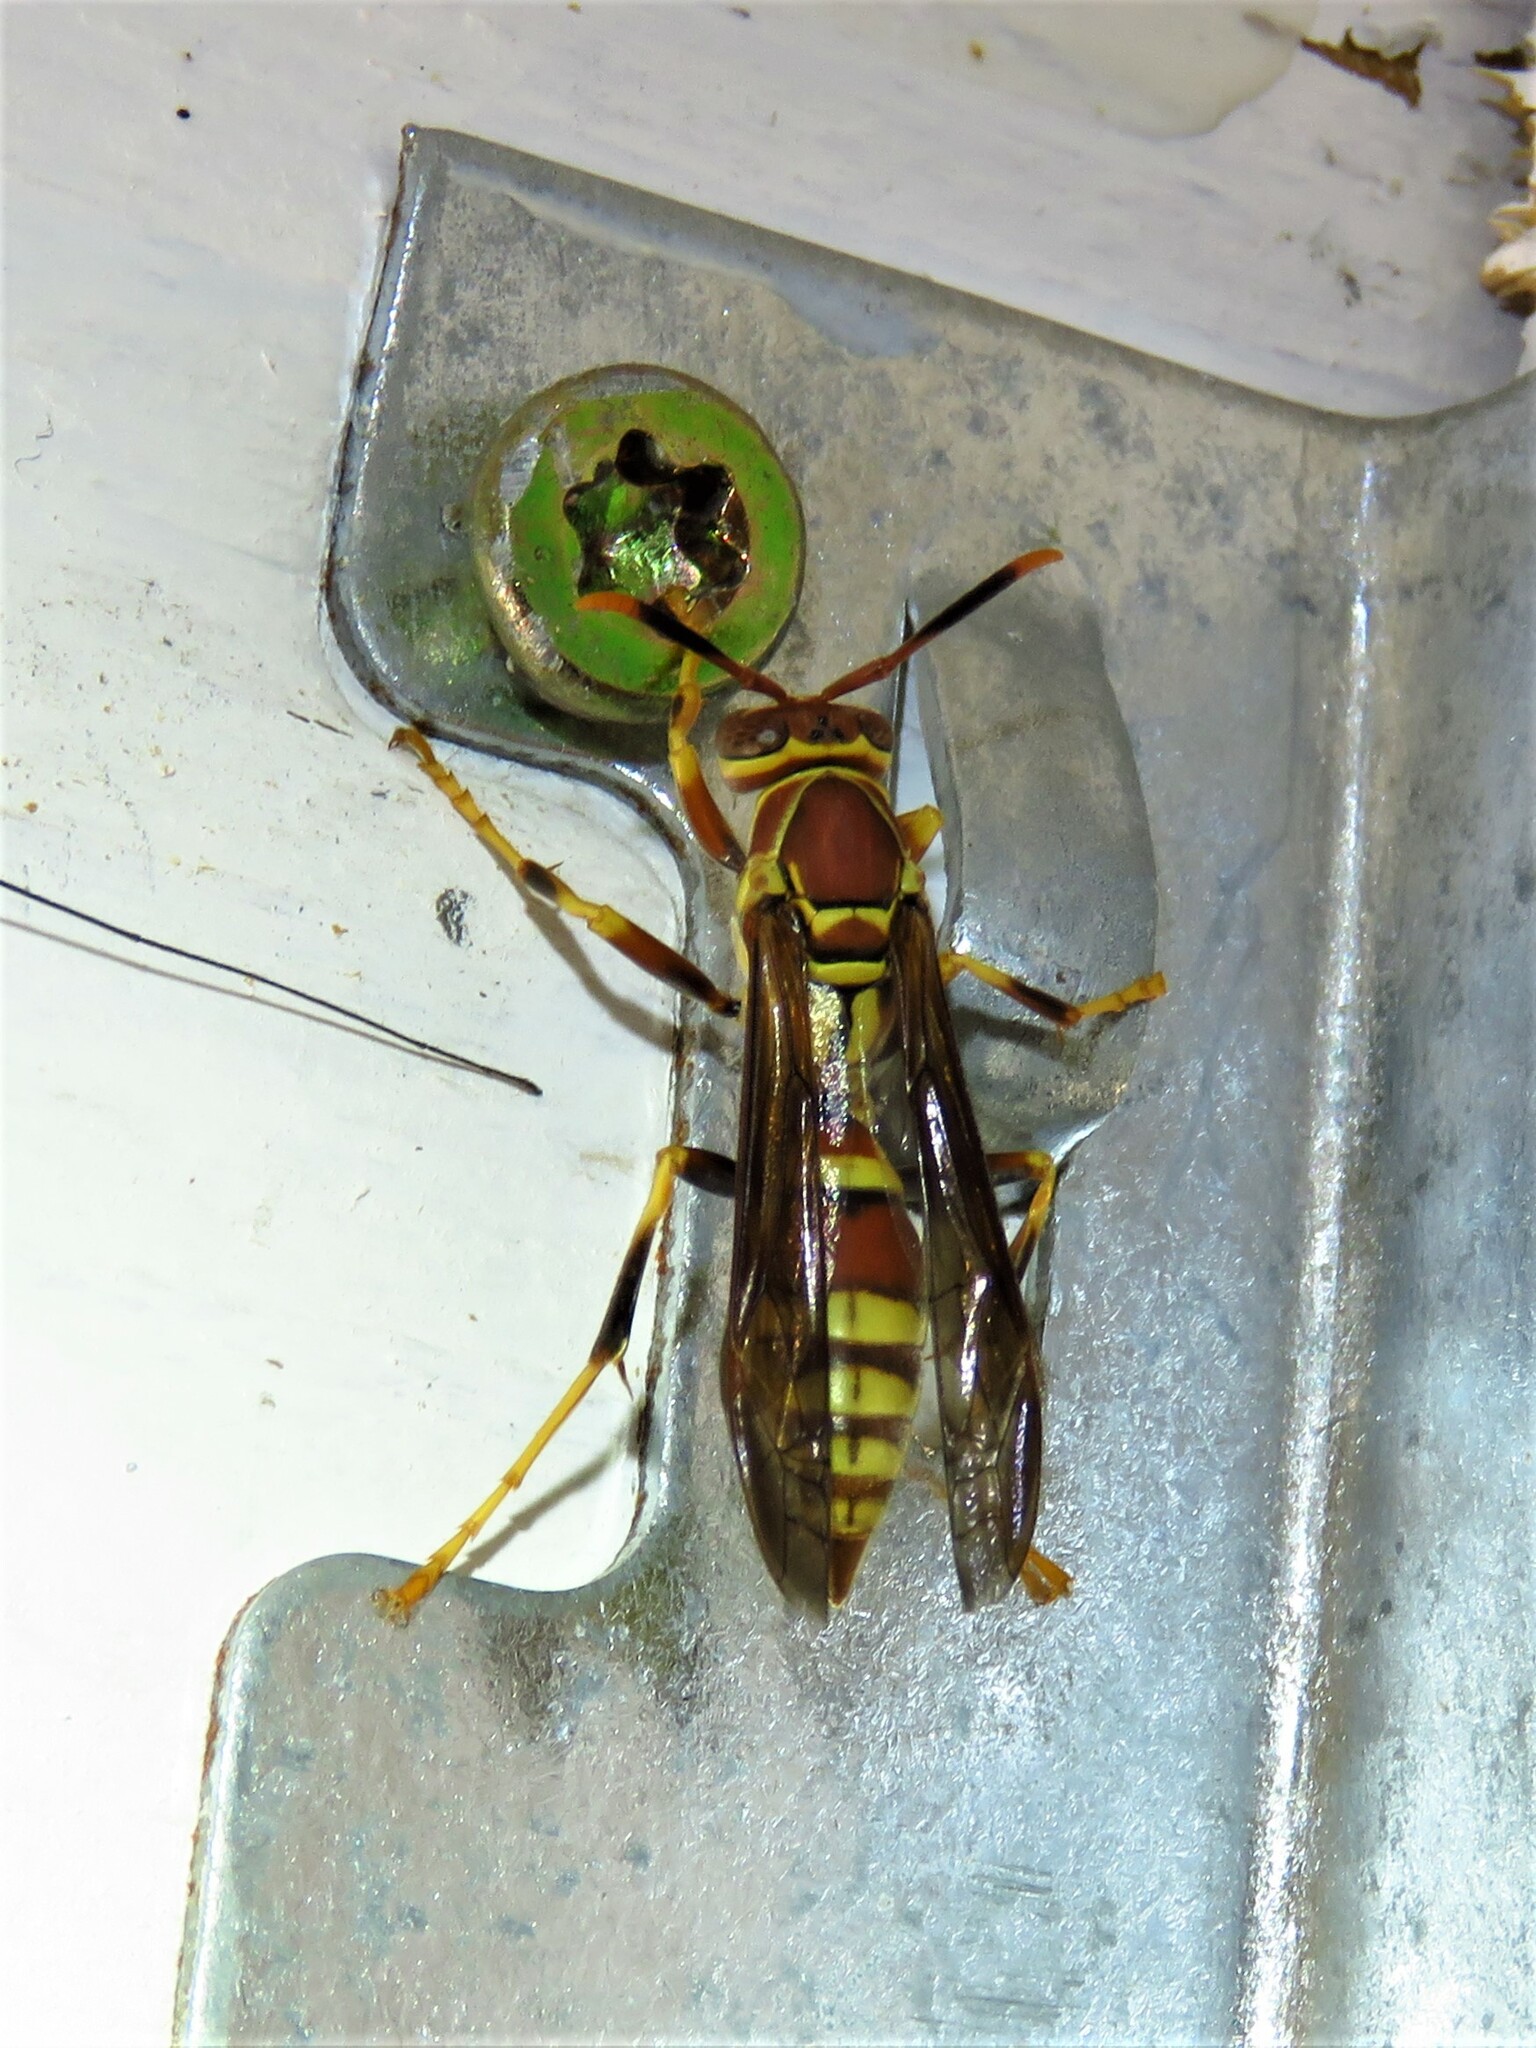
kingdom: Animalia
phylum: Arthropoda
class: Insecta
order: Hymenoptera
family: Eumenidae
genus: Polistes
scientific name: Polistes exclamans
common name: Paper wasp
